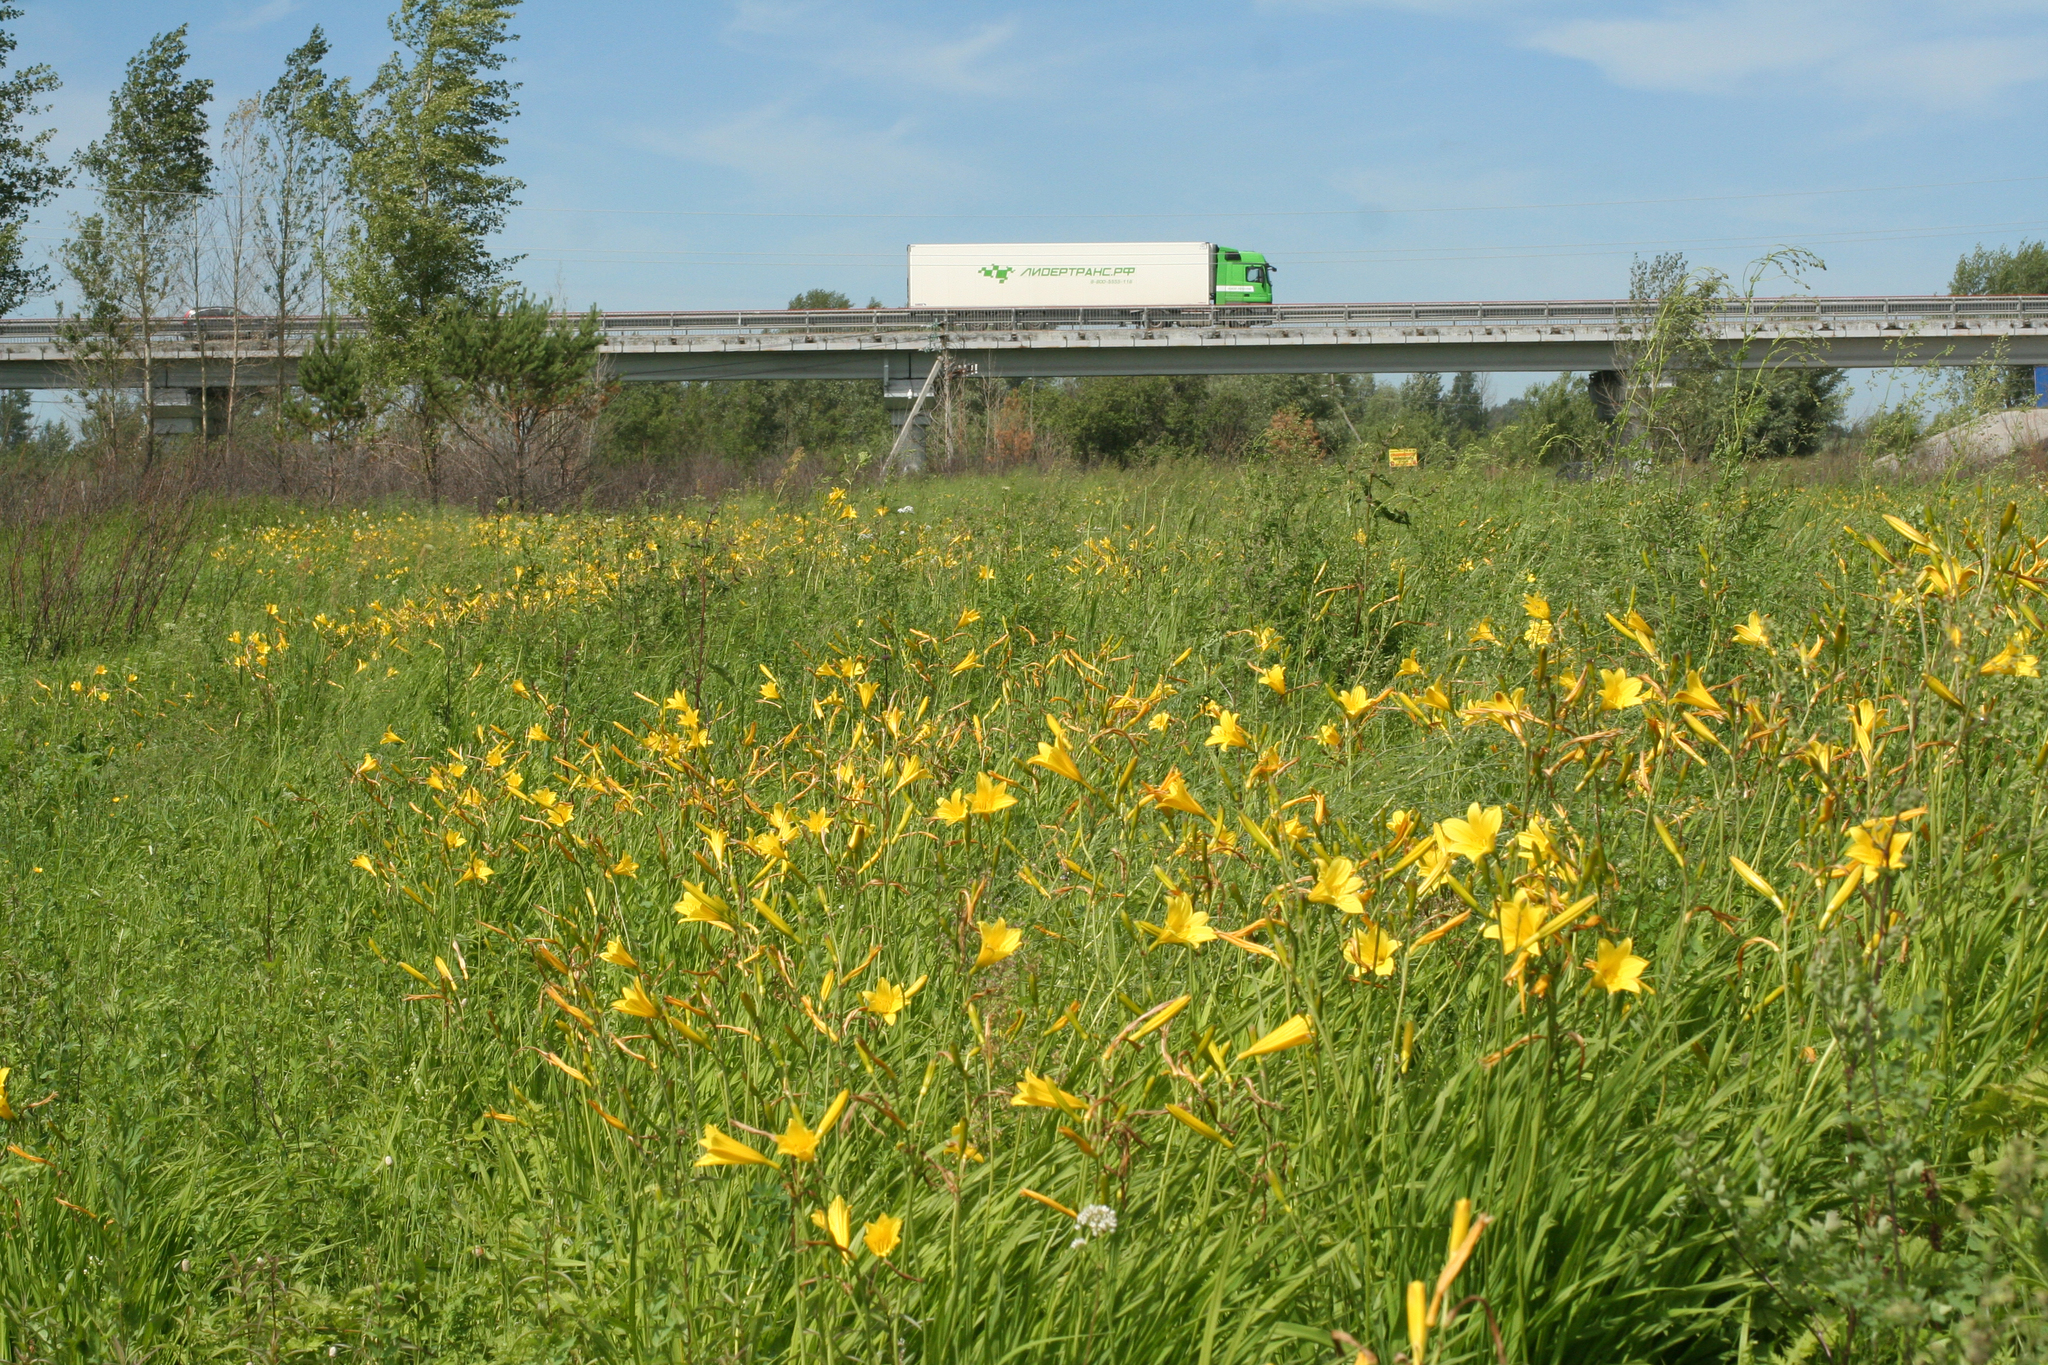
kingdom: Plantae
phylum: Tracheophyta
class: Liliopsida
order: Asparagales
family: Asphodelaceae
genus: Hemerocallis
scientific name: Hemerocallis minor
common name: Small daylily
